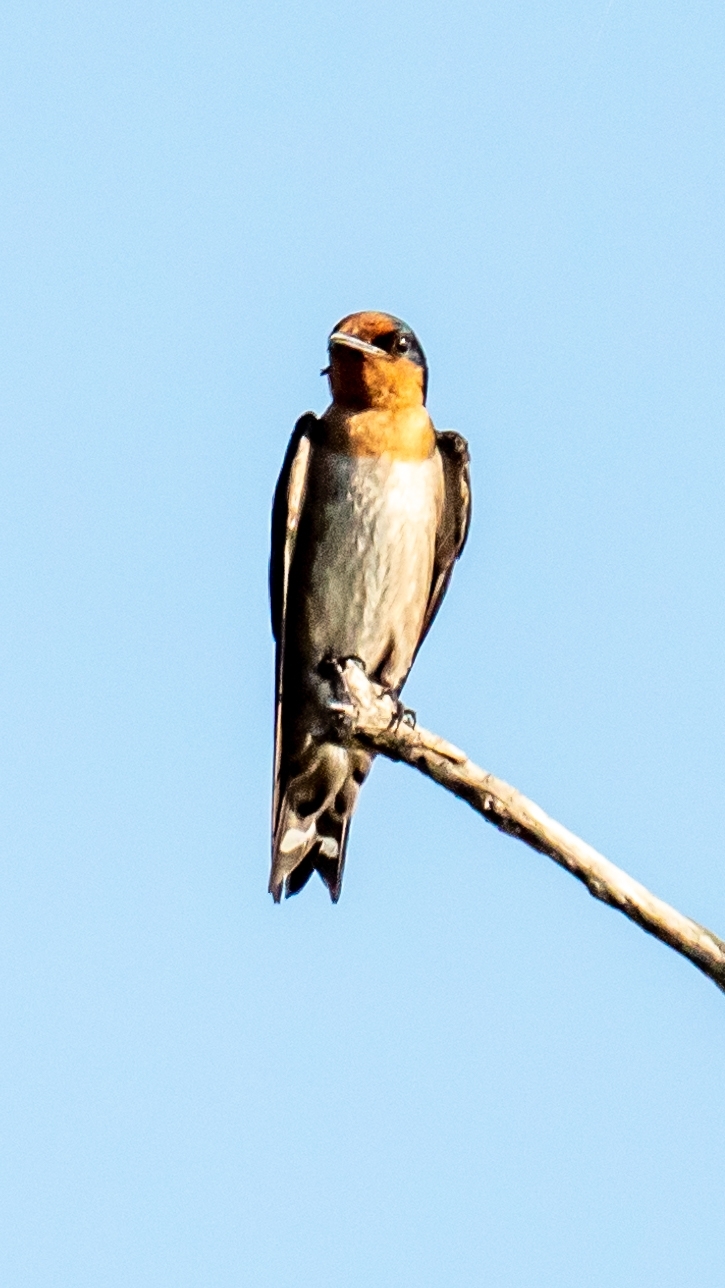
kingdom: Animalia
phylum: Chordata
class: Aves
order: Passeriformes
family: Hirundinidae
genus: Hirundo
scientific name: Hirundo tahitica
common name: Pacific swallow
